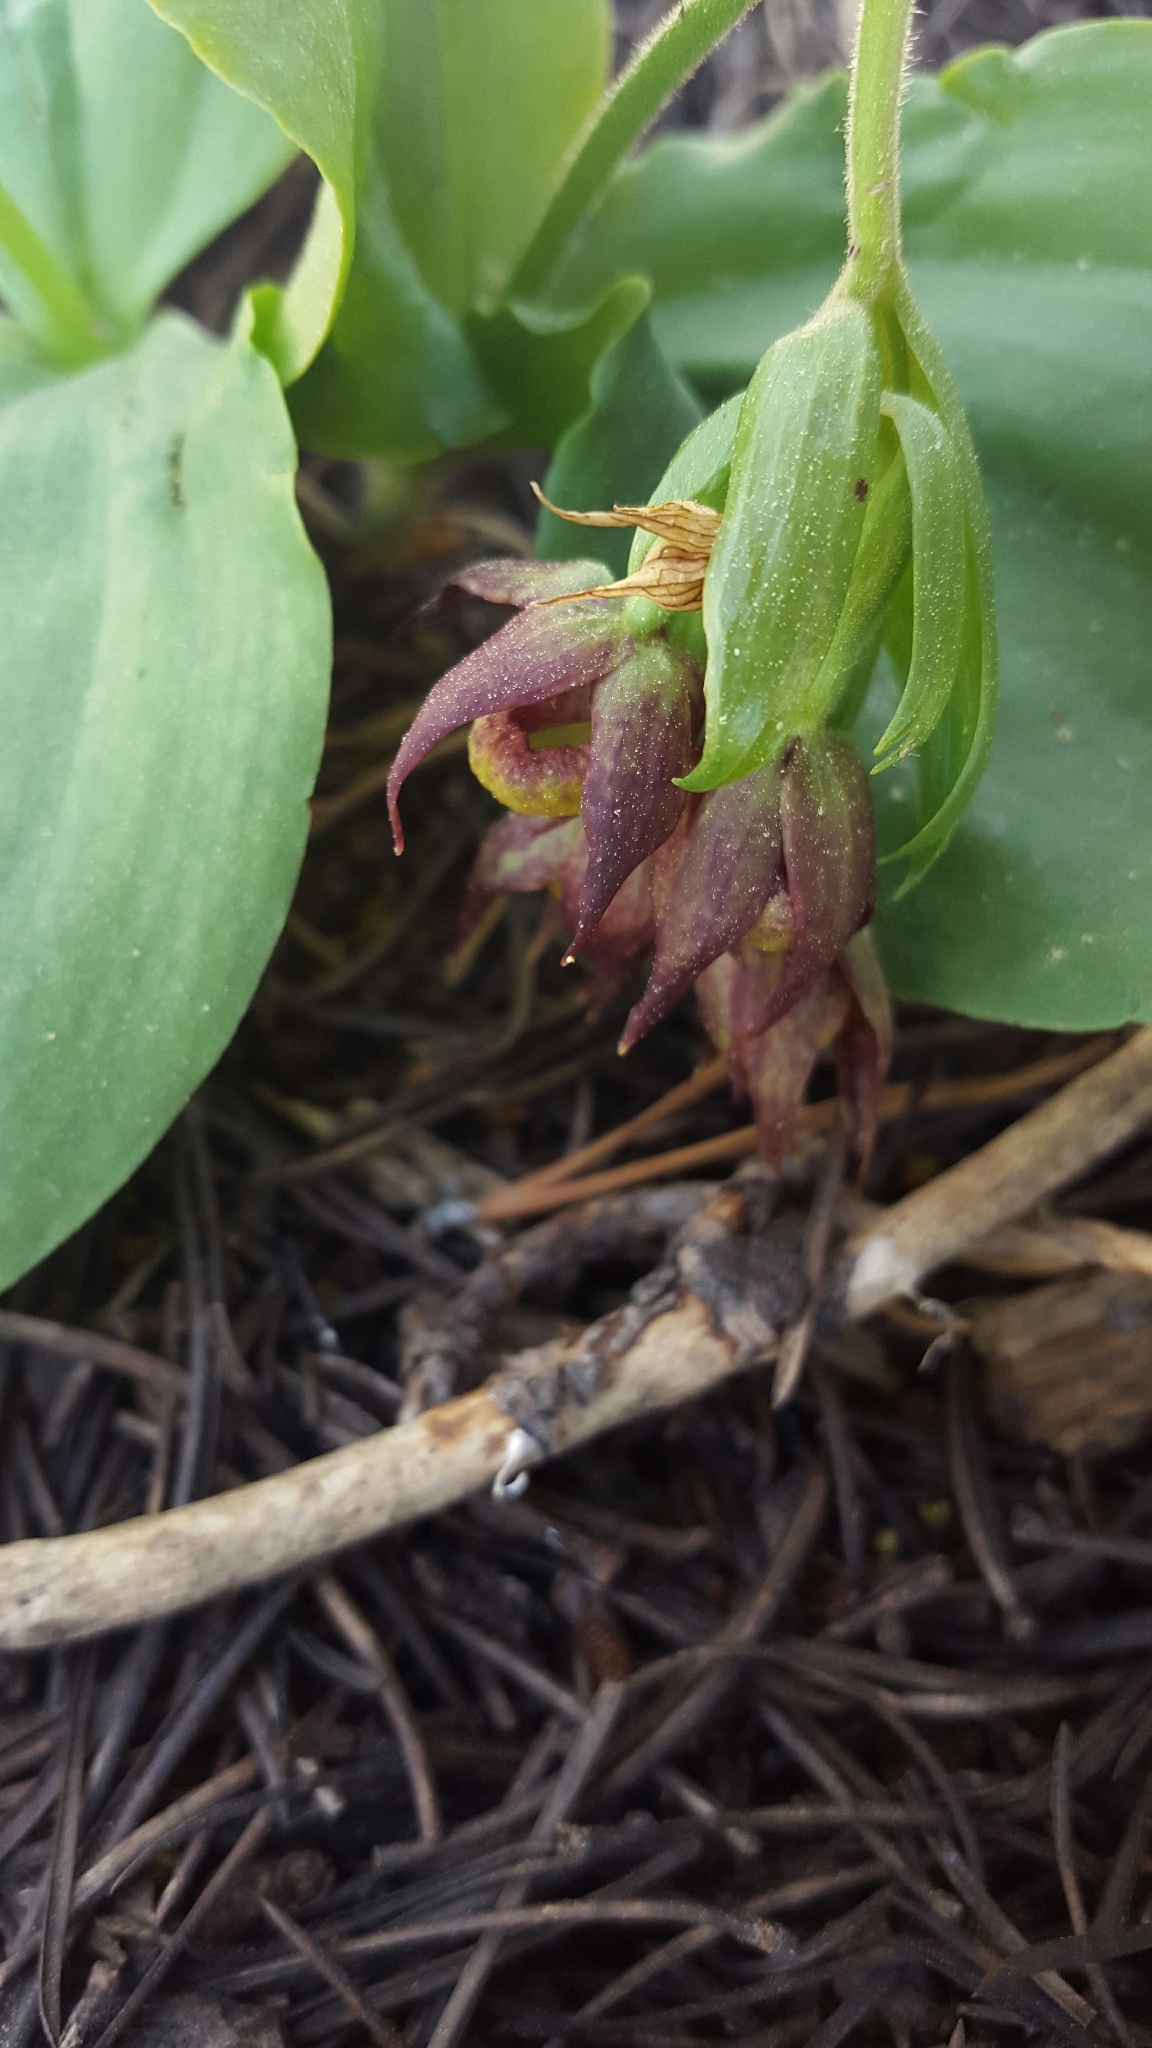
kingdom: Plantae
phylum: Tracheophyta
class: Liliopsida
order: Asparagales
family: Orchidaceae
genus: Cypripedium
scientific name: Cypripedium fasciculatum
